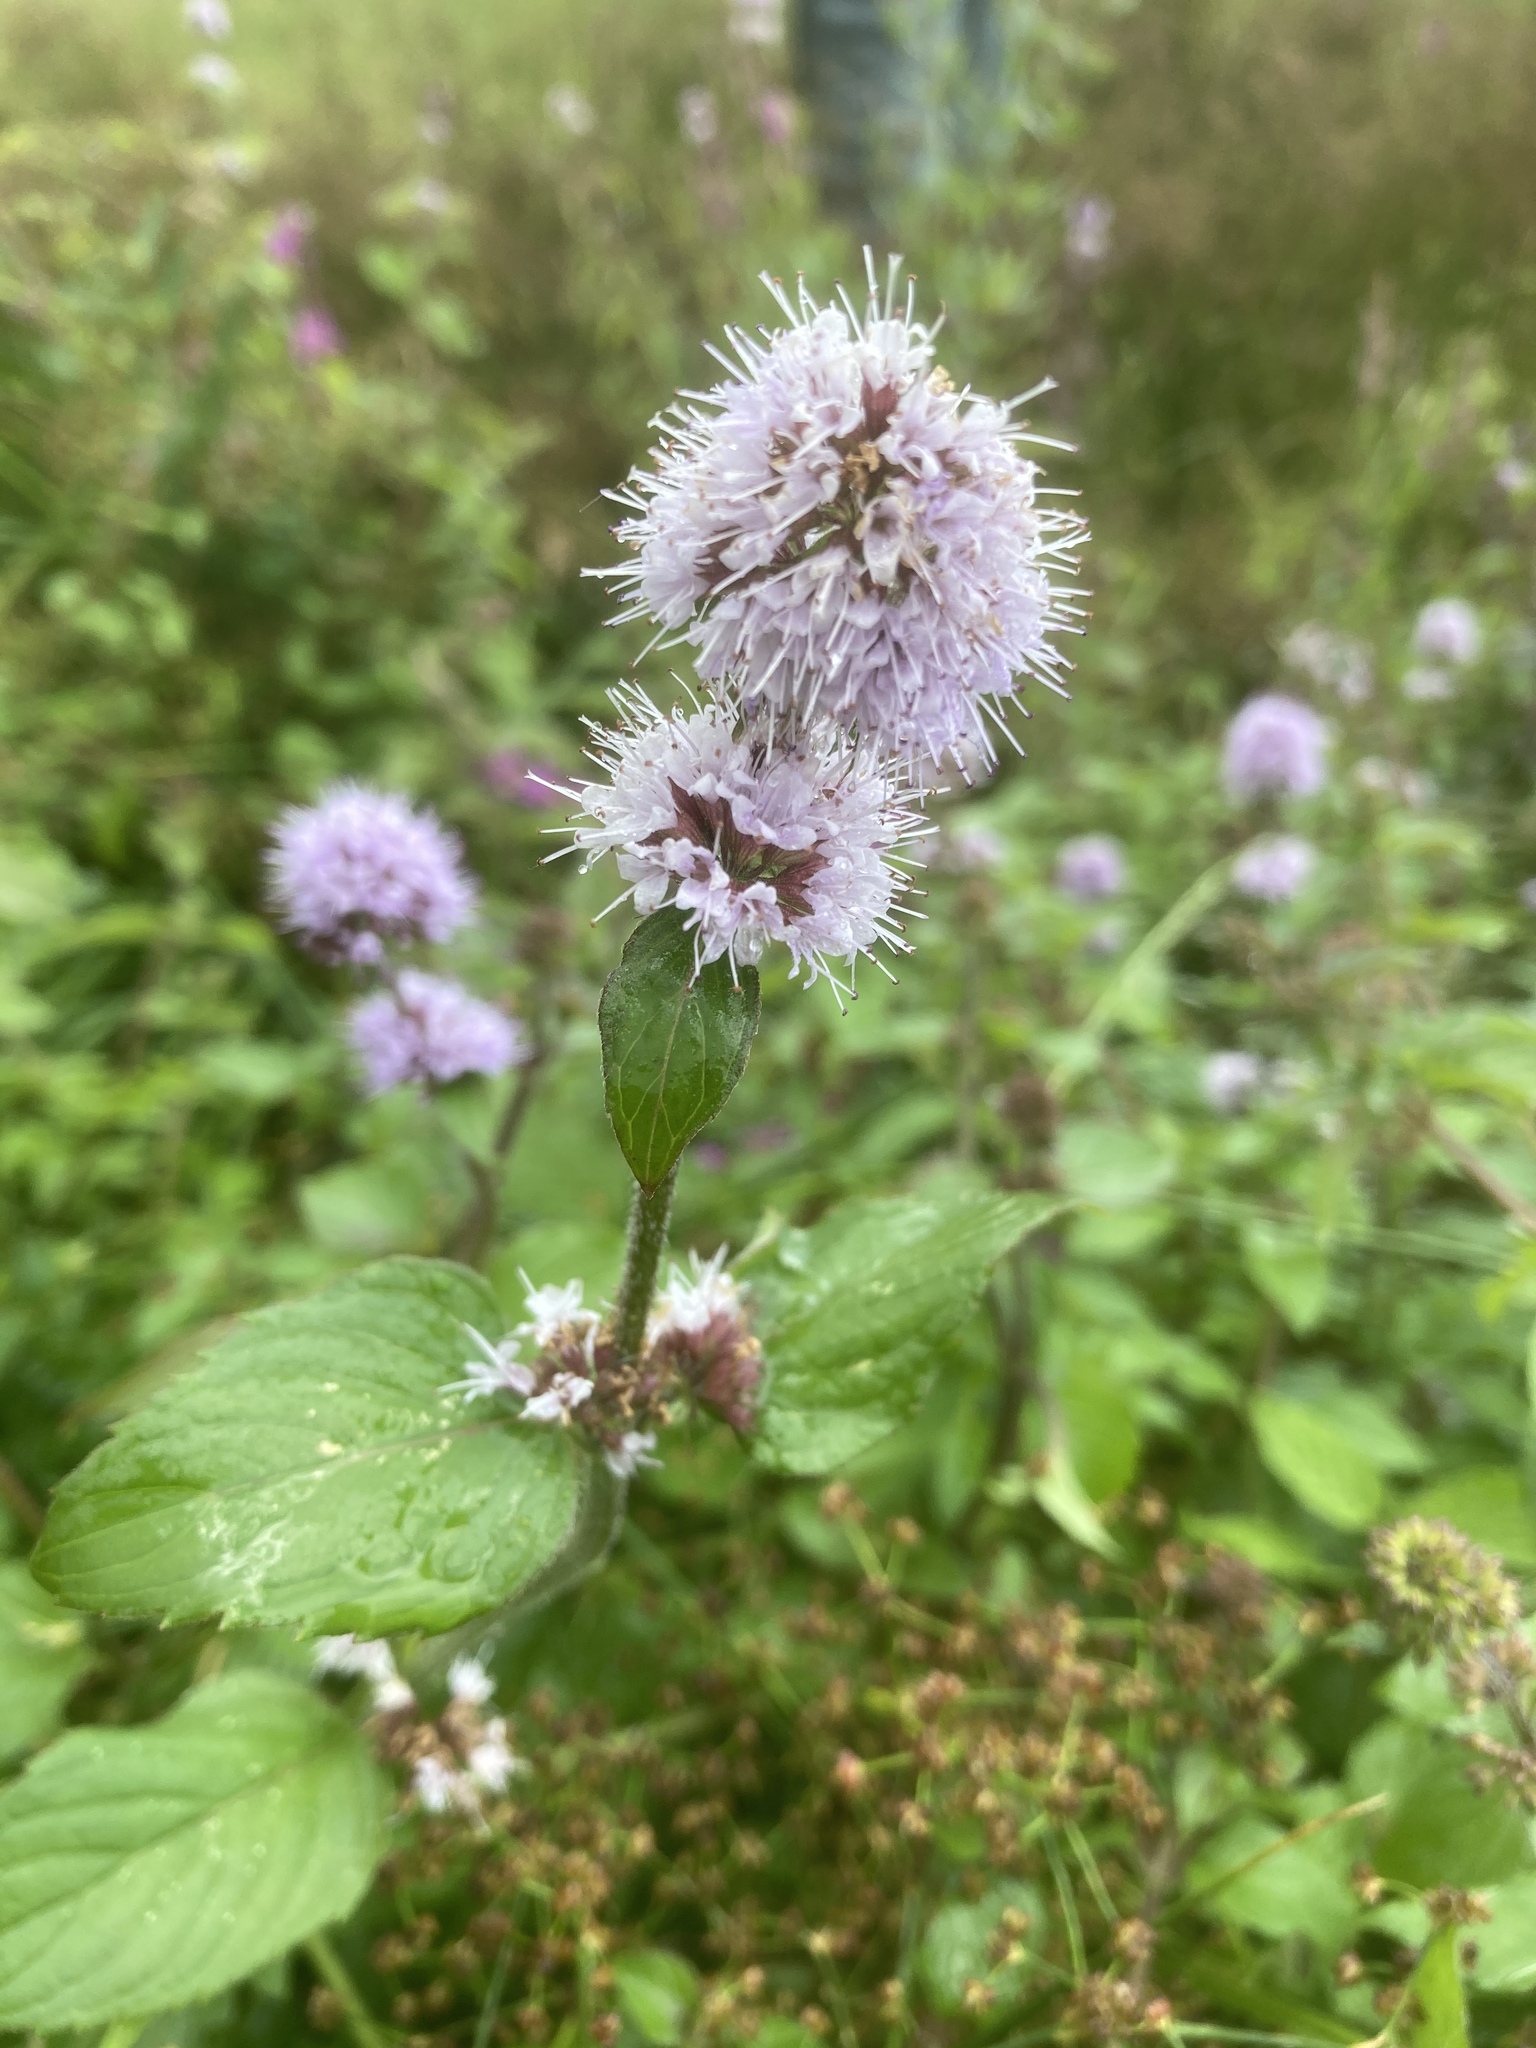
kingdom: Plantae
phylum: Tracheophyta
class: Magnoliopsida
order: Lamiales
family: Lamiaceae
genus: Mentha
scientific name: Mentha aquatica
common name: Water mint
